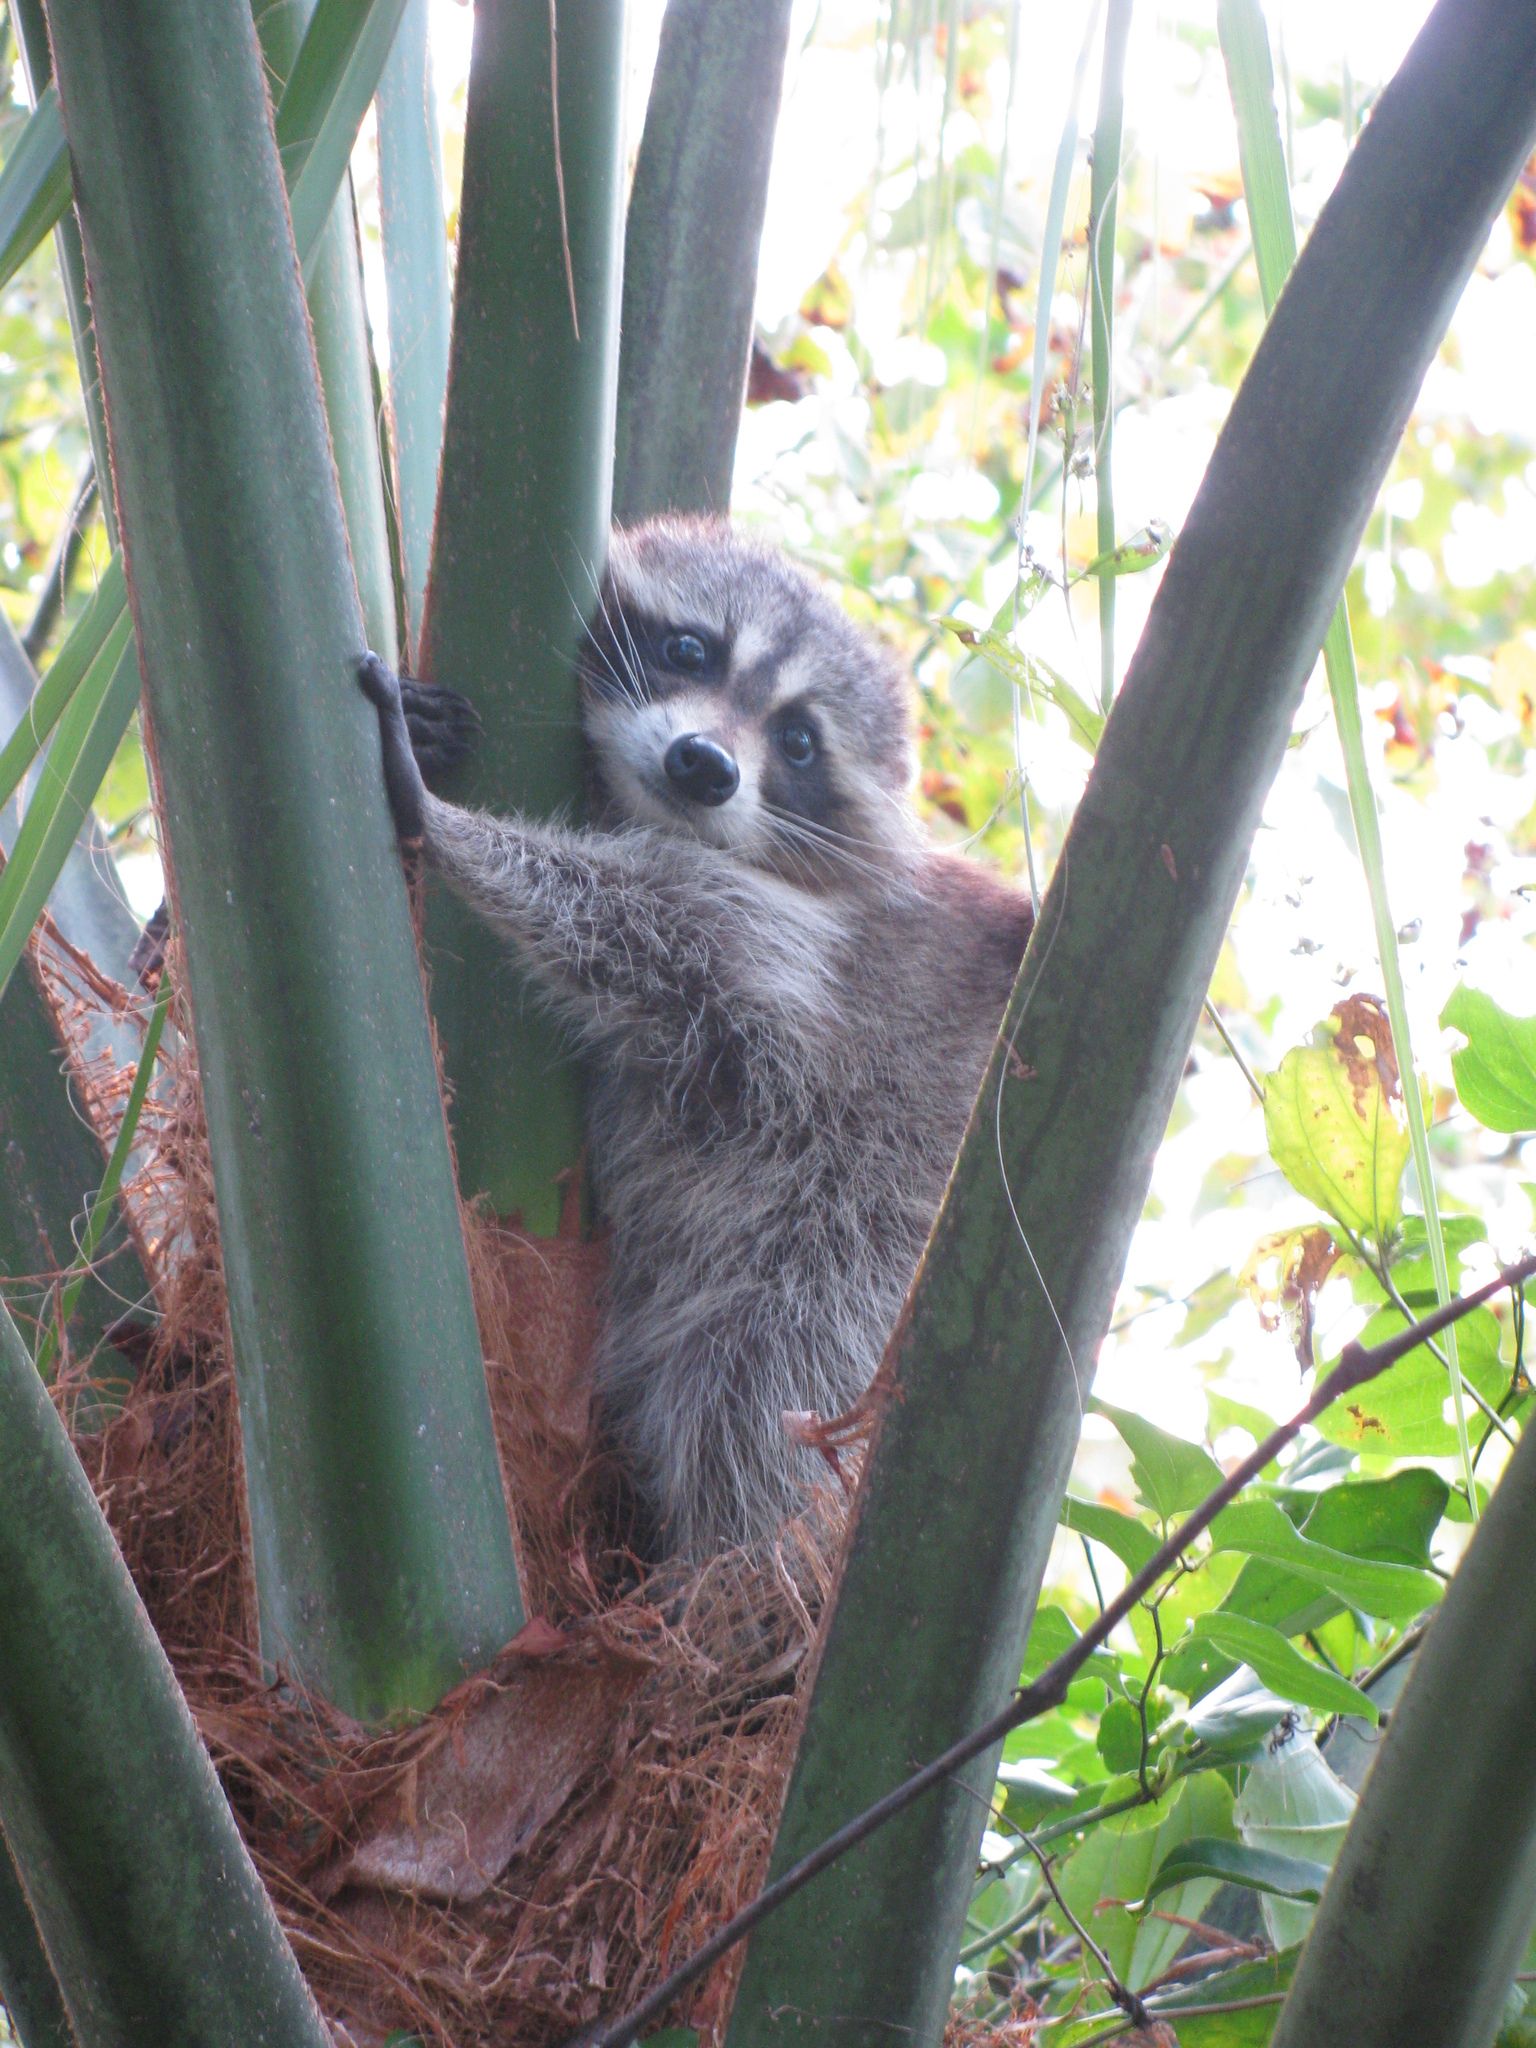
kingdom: Animalia
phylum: Chordata
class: Mammalia
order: Carnivora
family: Procyonidae
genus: Procyon
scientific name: Procyon lotor
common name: Raccoon
